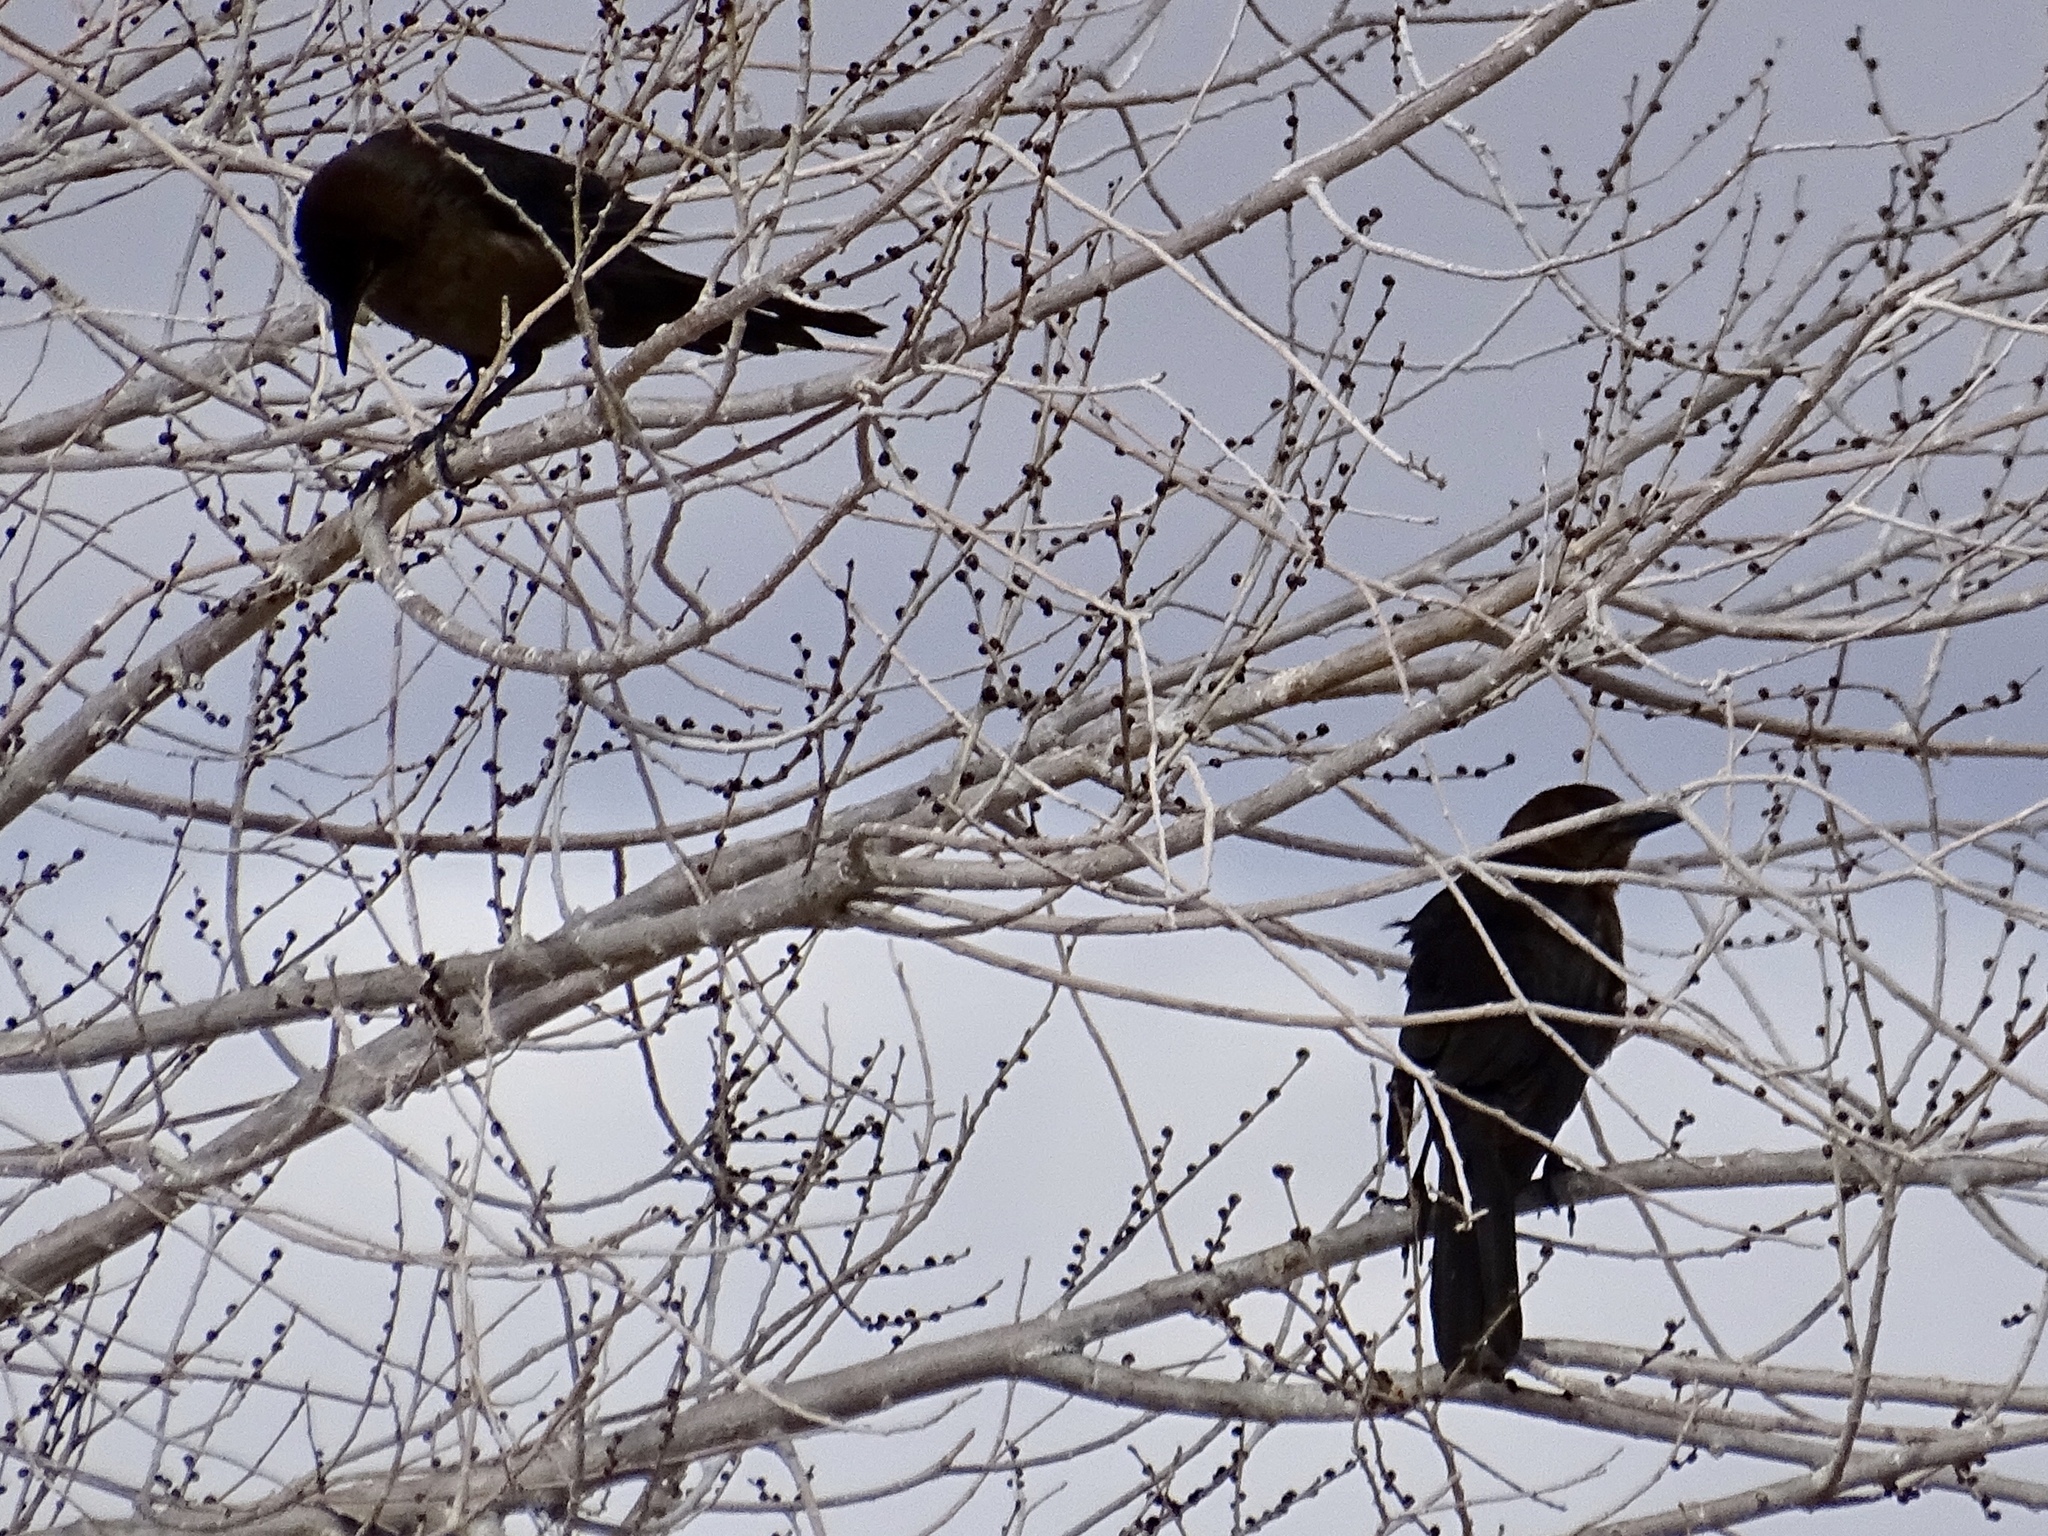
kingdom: Animalia
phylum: Chordata
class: Aves
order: Passeriformes
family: Icteridae
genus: Quiscalus
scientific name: Quiscalus mexicanus
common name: Great-tailed grackle
